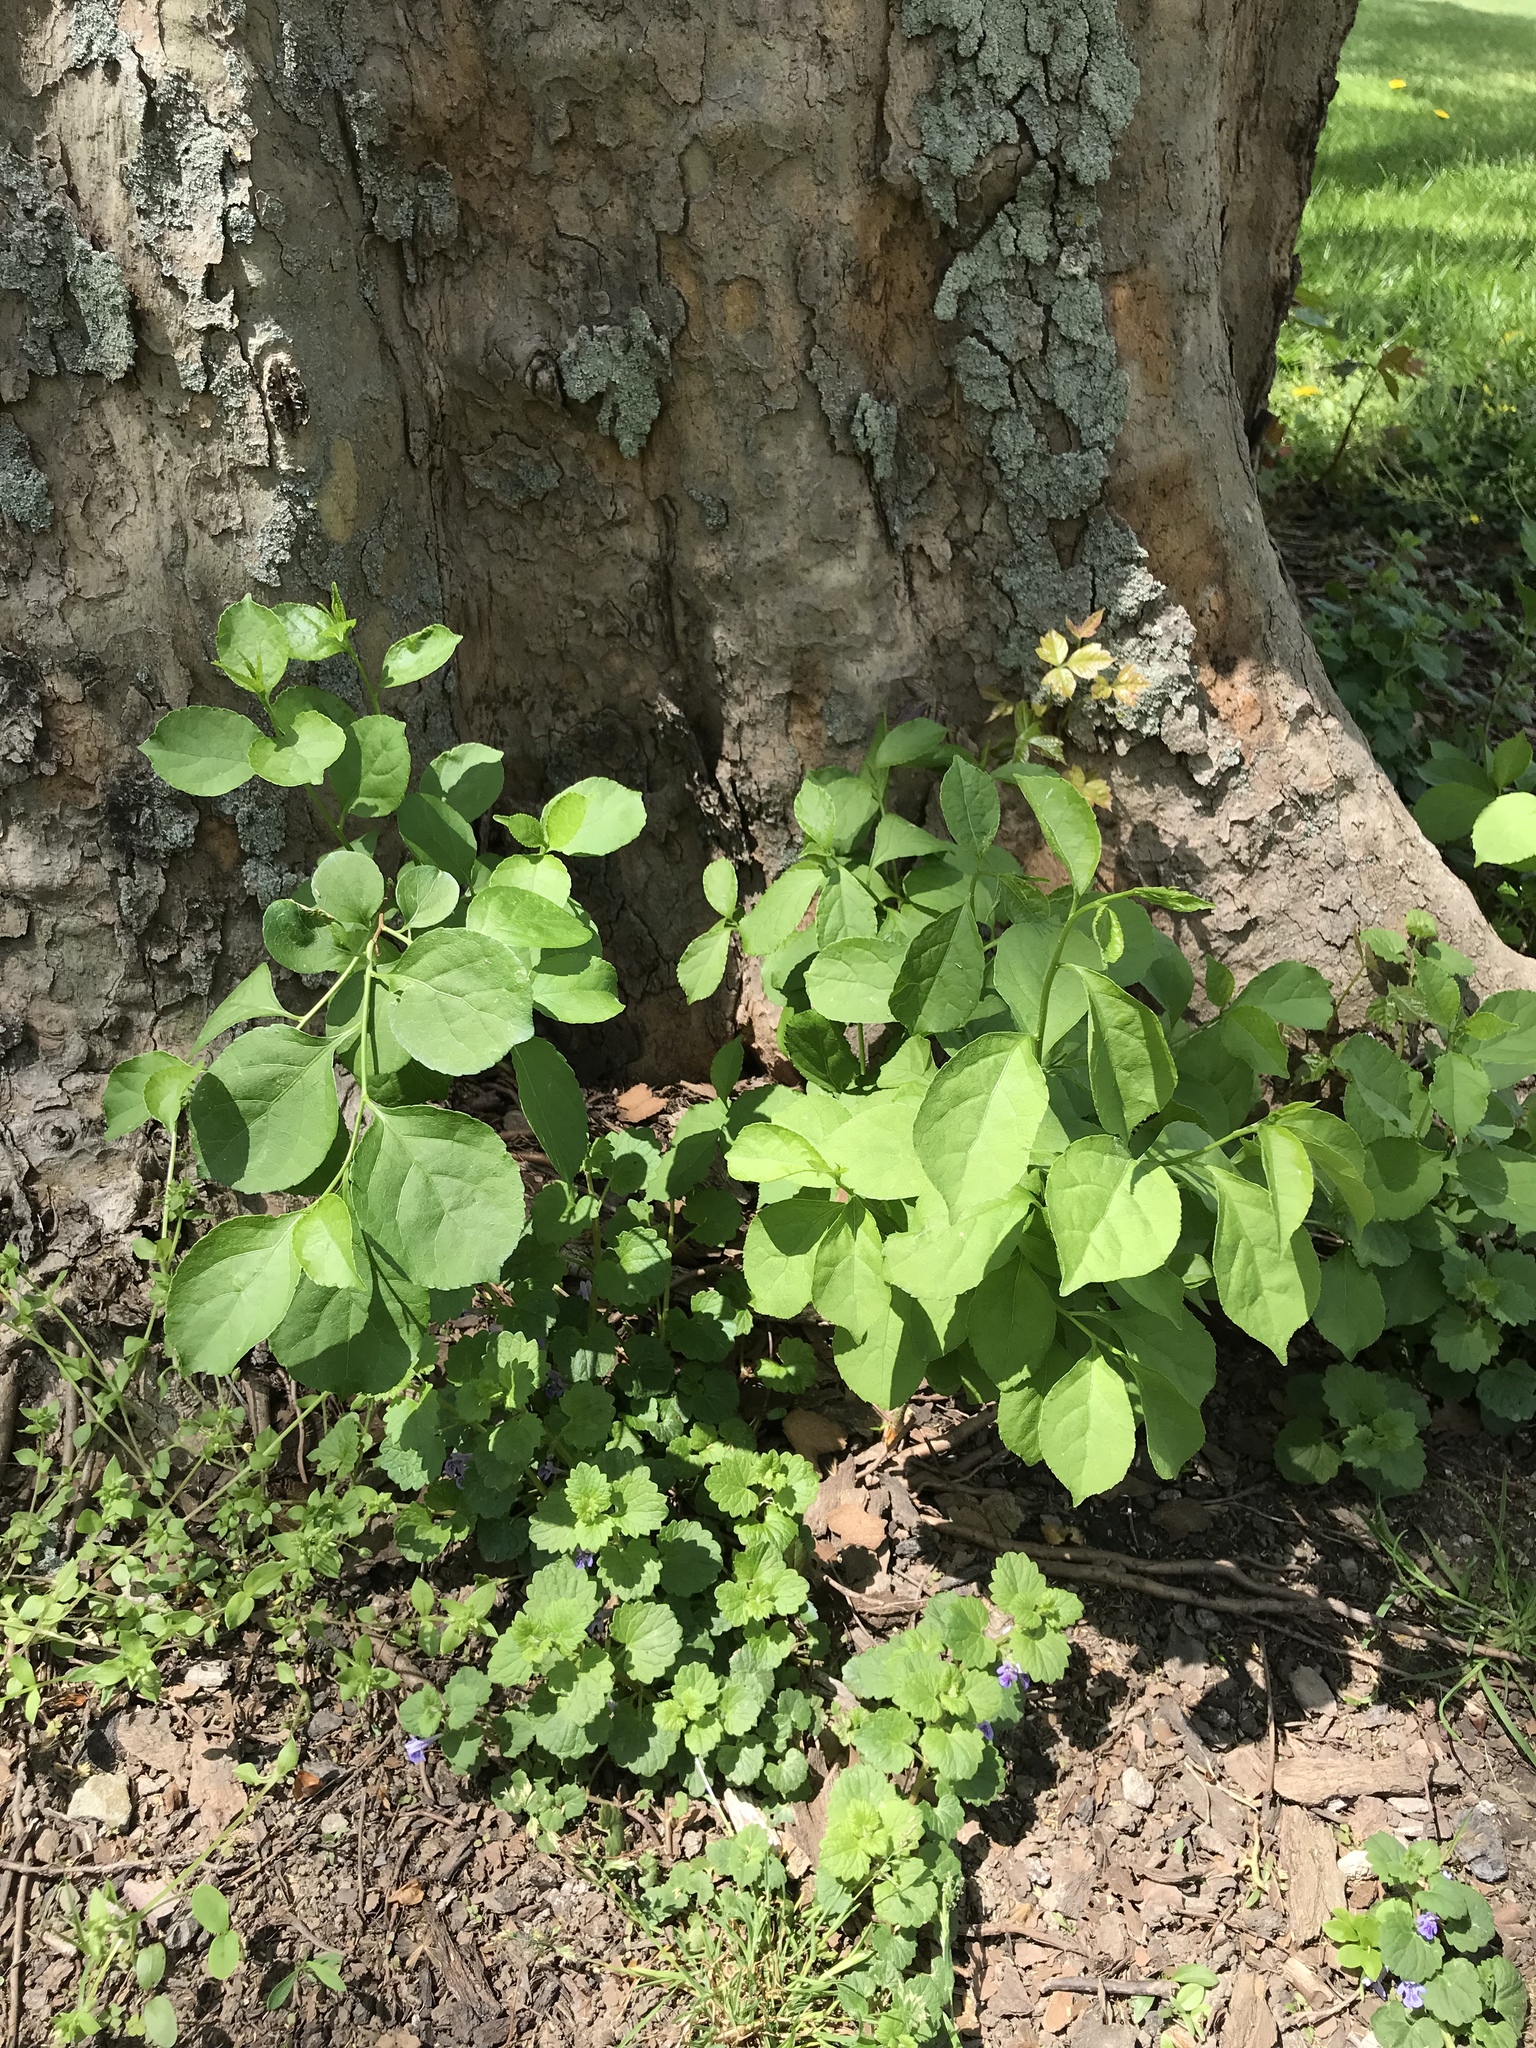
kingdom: Plantae
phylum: Tracheophyta
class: Magnoliopsida
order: Celastrales
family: Celastraceae
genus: Celastrus
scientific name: Celastrus orbiculatus
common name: Oriental bittersweet
